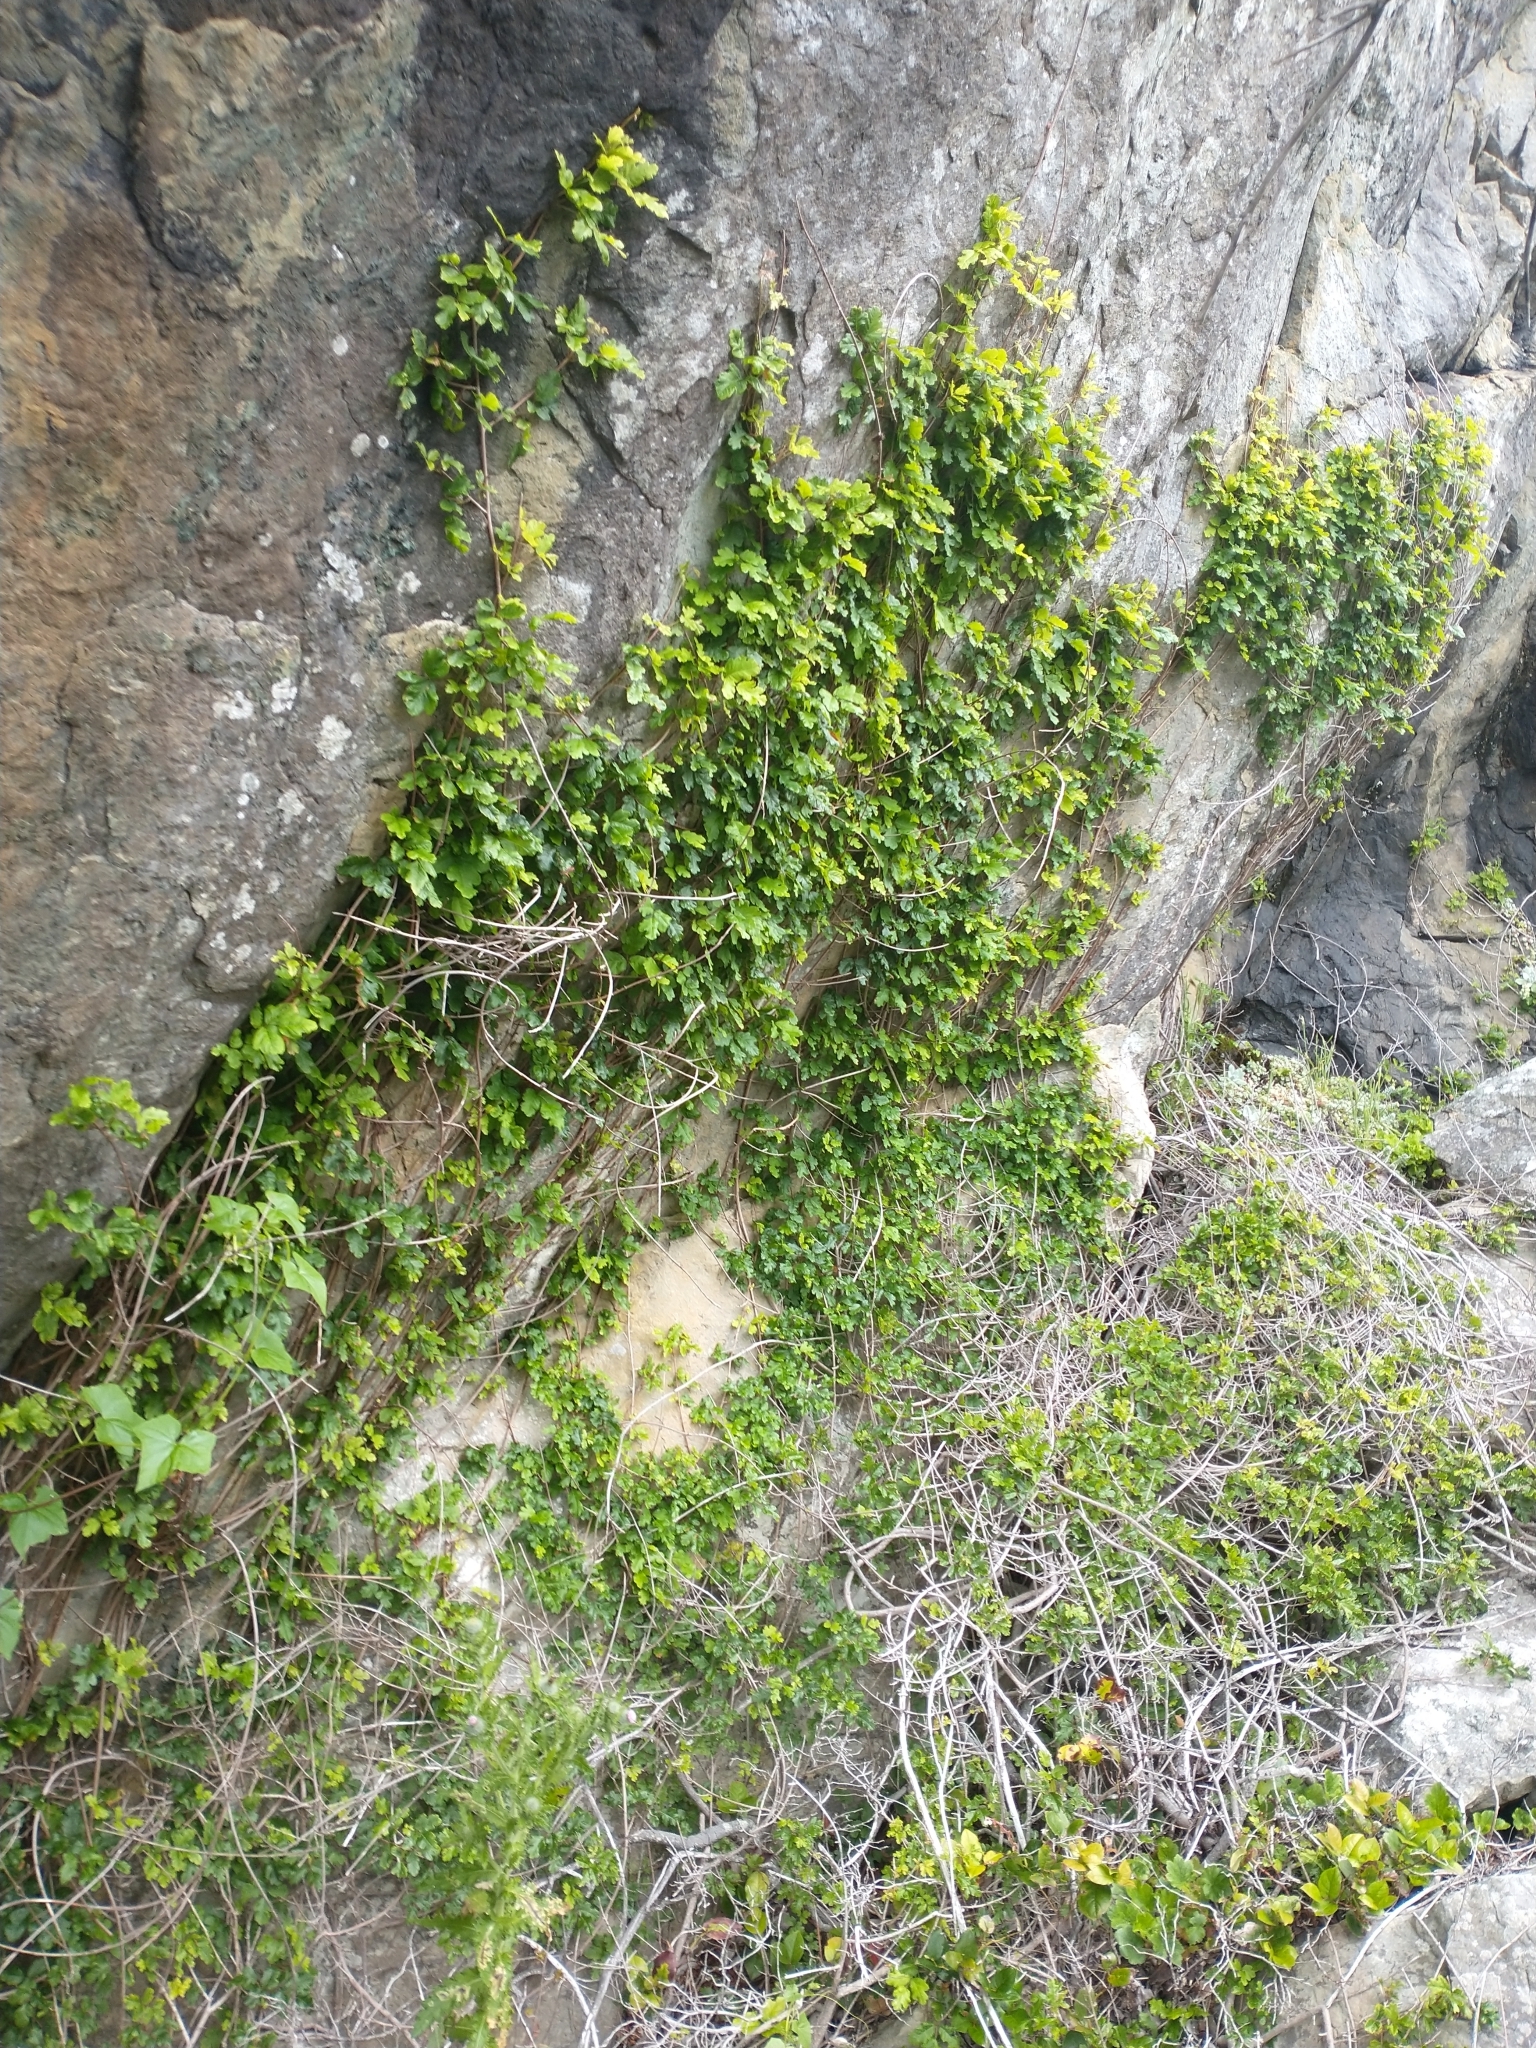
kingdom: Plantae
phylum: Tracheophyta
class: Magnoliopsida
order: Sapindales
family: Anacardiaceae
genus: Toxicodendron
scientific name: Toxicodendron diversilobum
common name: Pacific poison-oak
